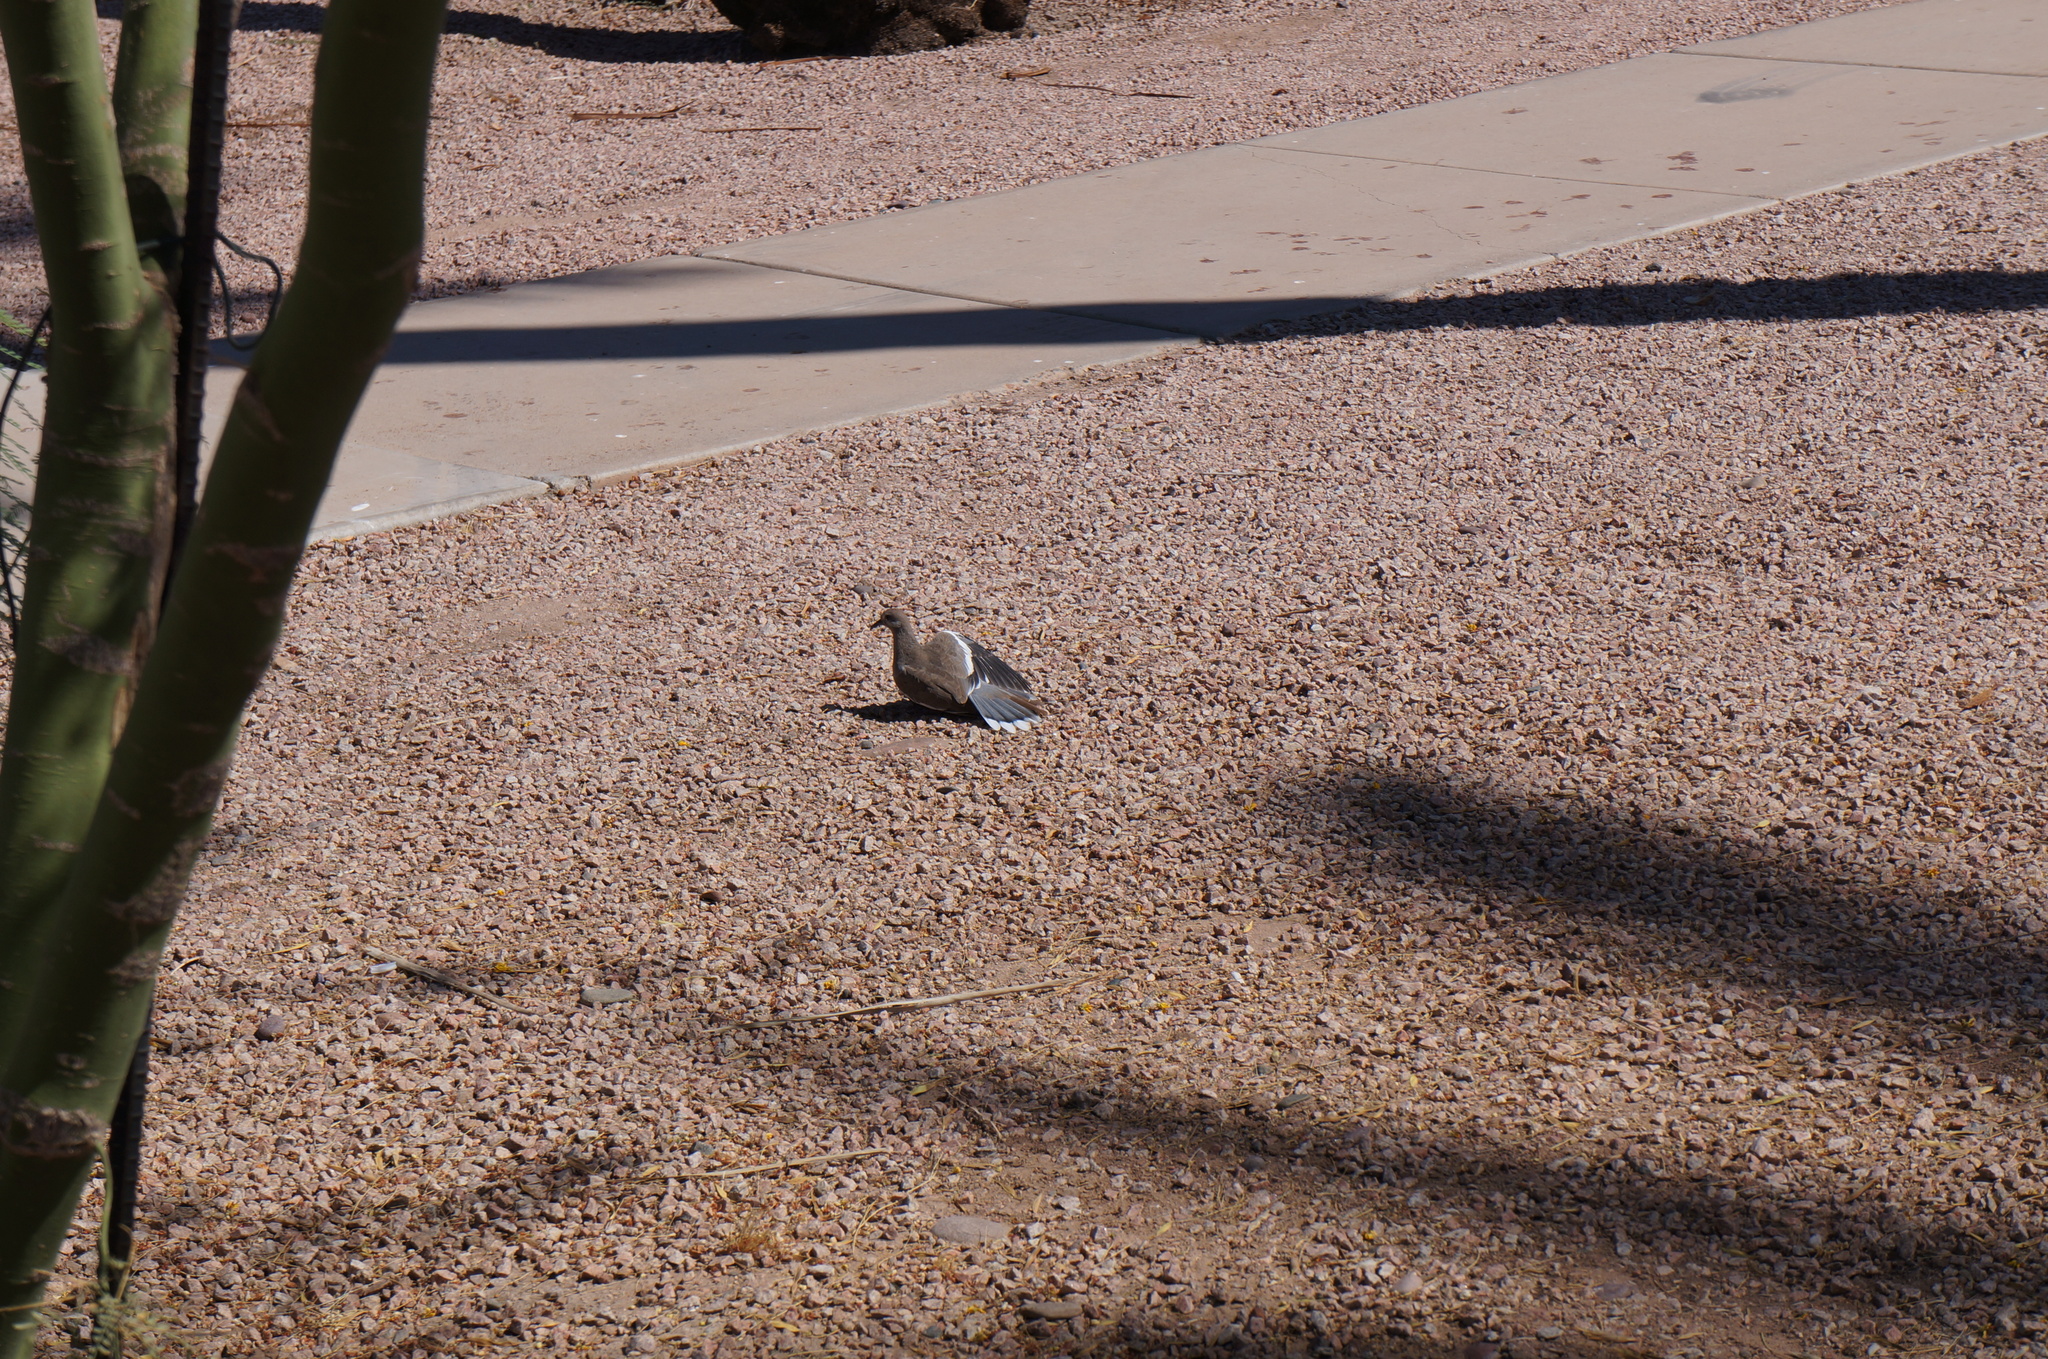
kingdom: Animalia
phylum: Chordata
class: Aves
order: Columbiformes
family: Columbidae
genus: Zenaida
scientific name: Zenaida asiatica
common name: White-winged dove
